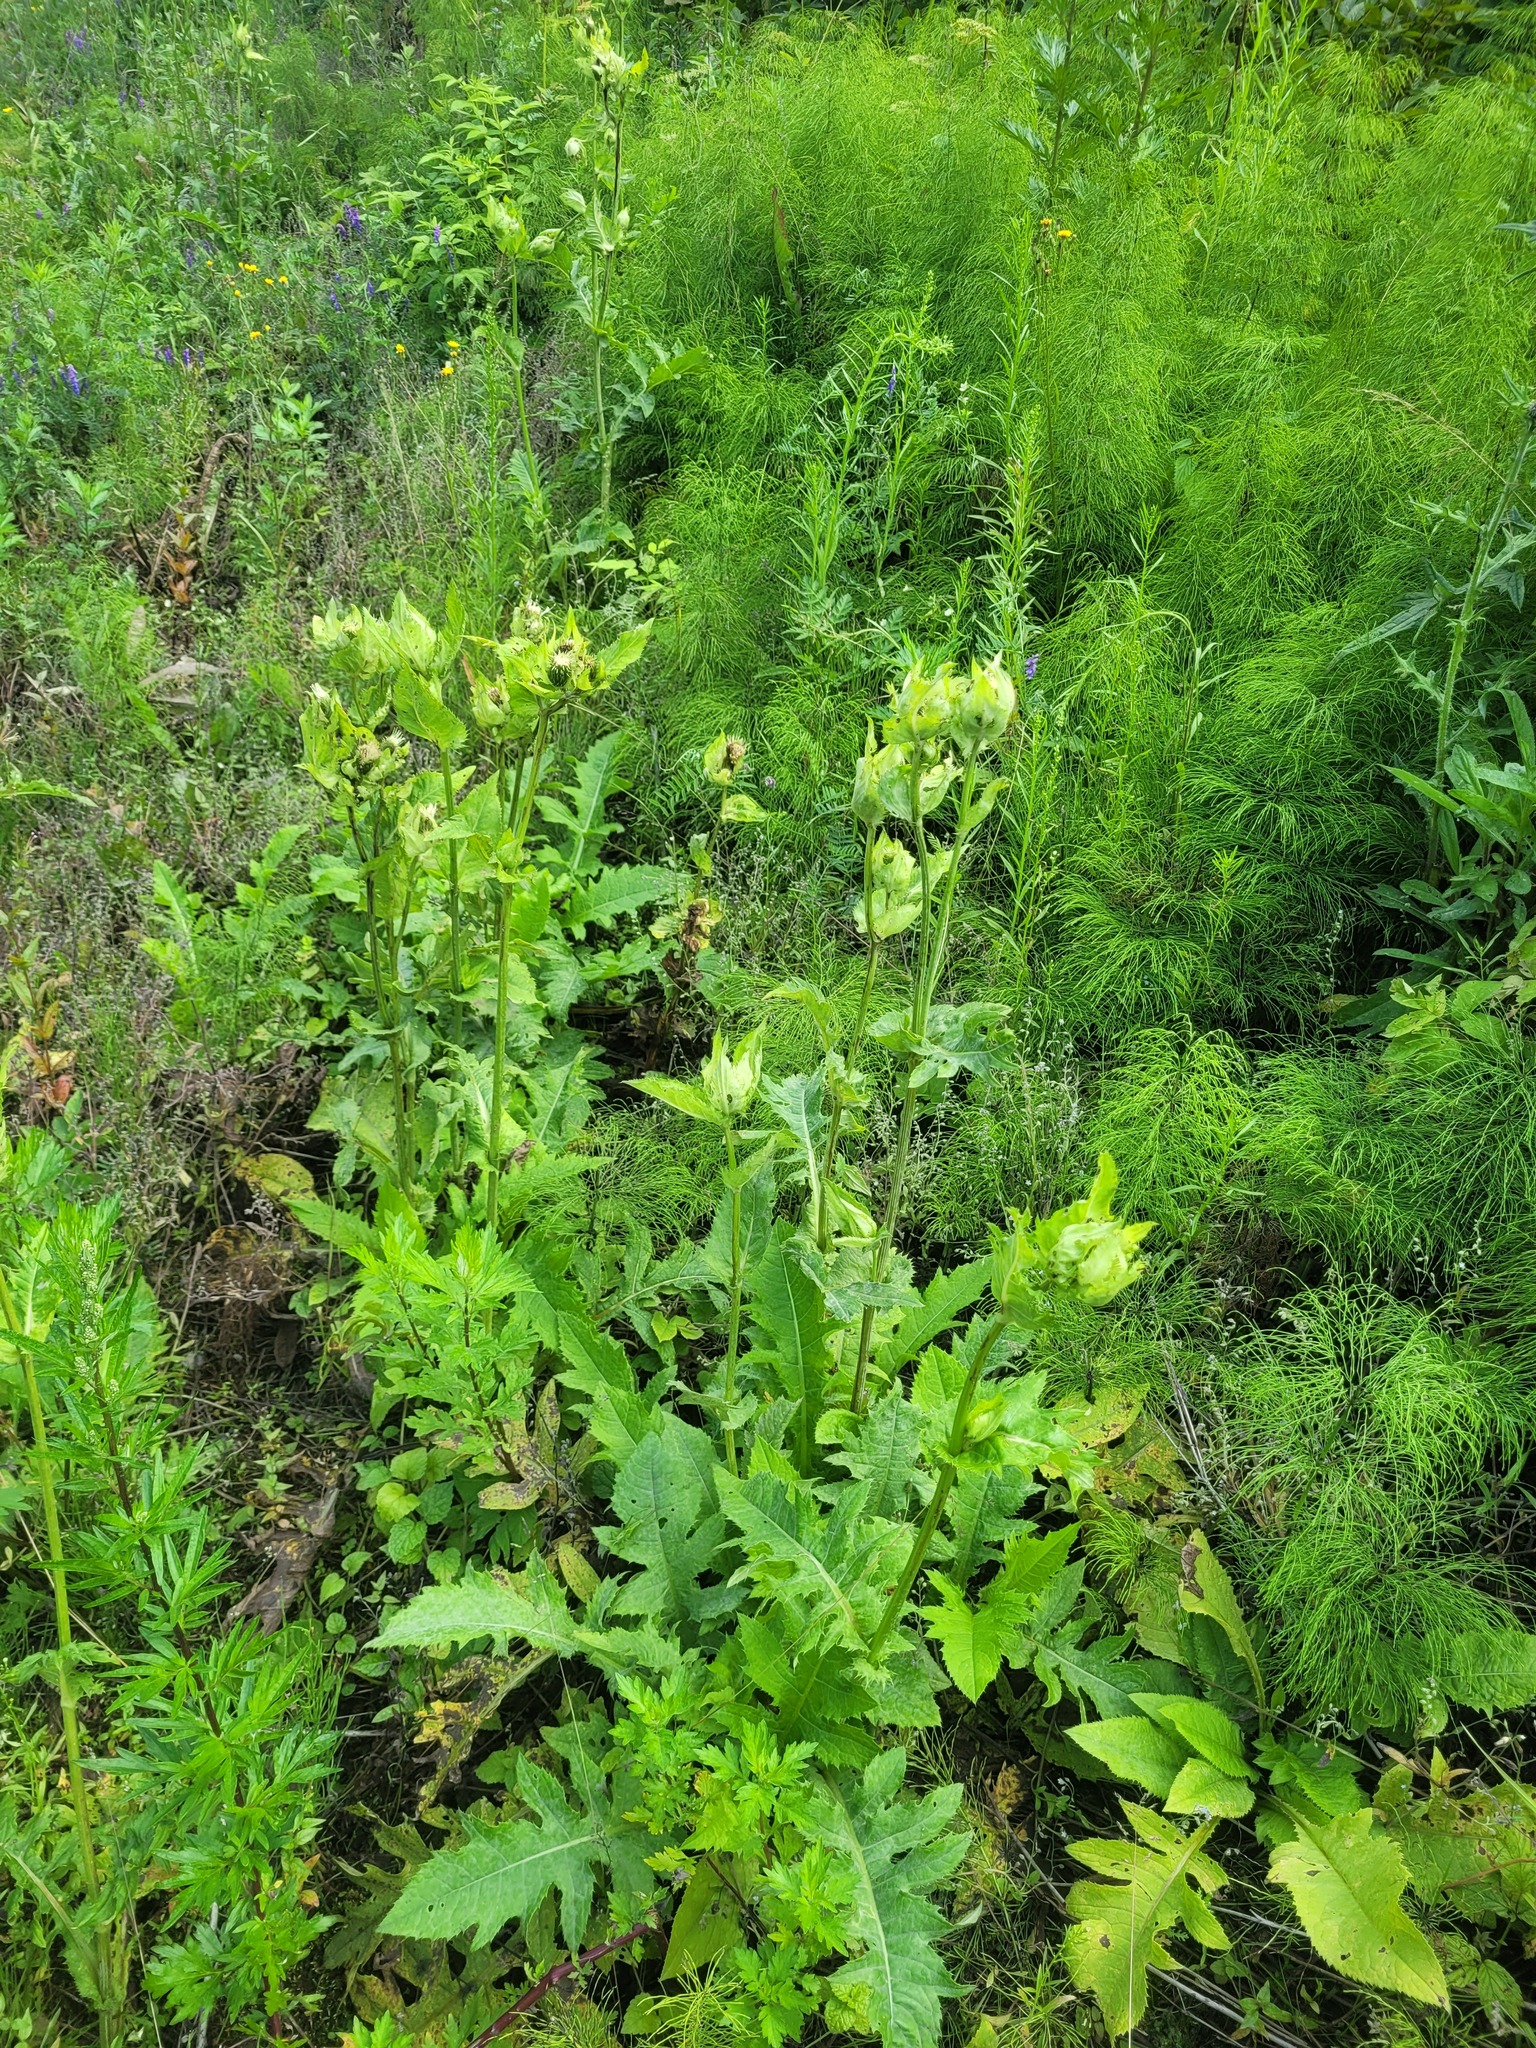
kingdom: Plantae
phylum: Tracheophyta
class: Magnoliopsida
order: Asterales
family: Asteraceae
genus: Cirsium
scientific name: Cirsium oleraceum
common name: Cabbage thistle
